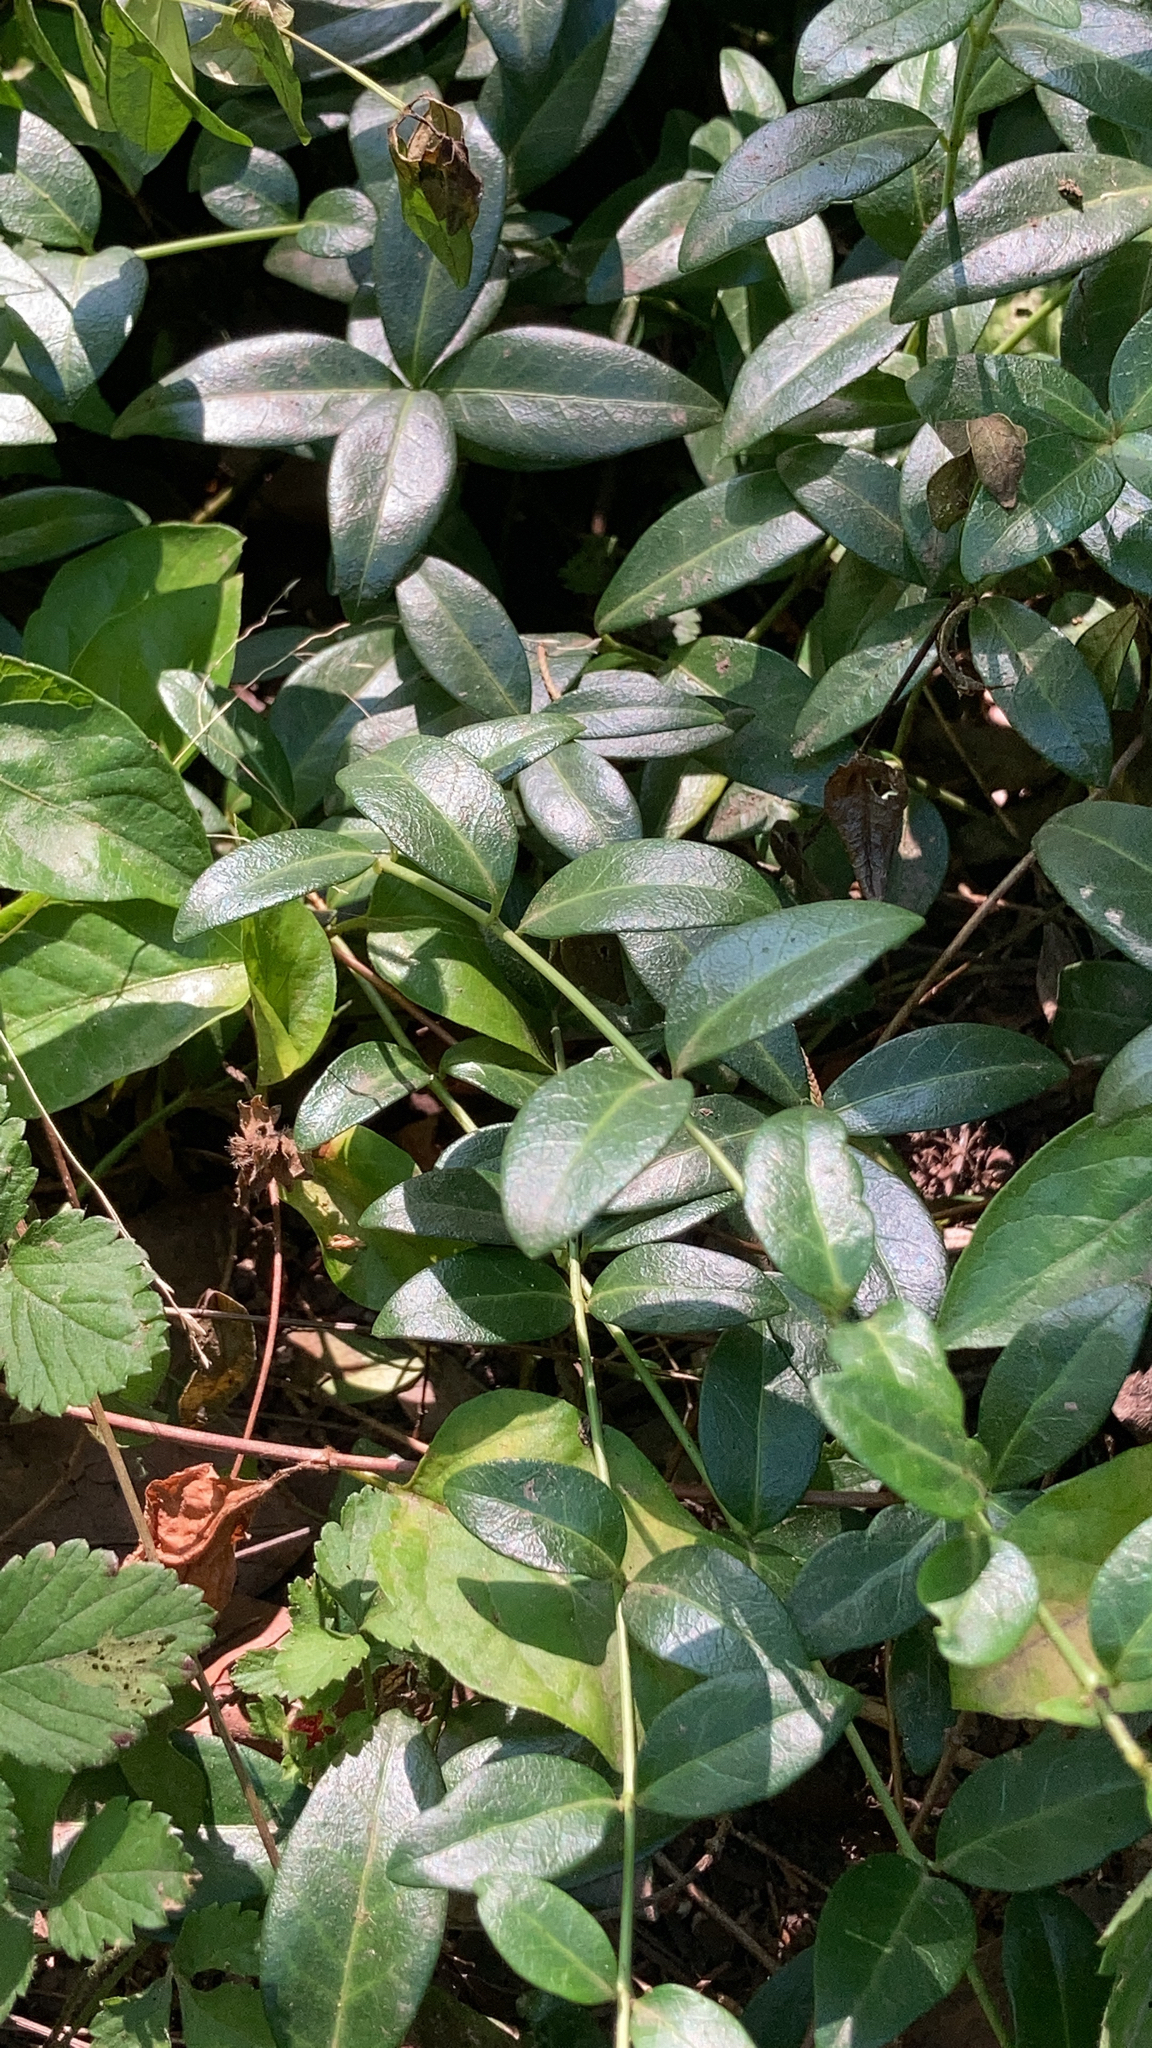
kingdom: Plantae
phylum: Tracheophyta
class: Magnoliopsida
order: Gentianales
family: Apocynaceae
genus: Vinca
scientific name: Vinca minor
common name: Lesser periwinkle
